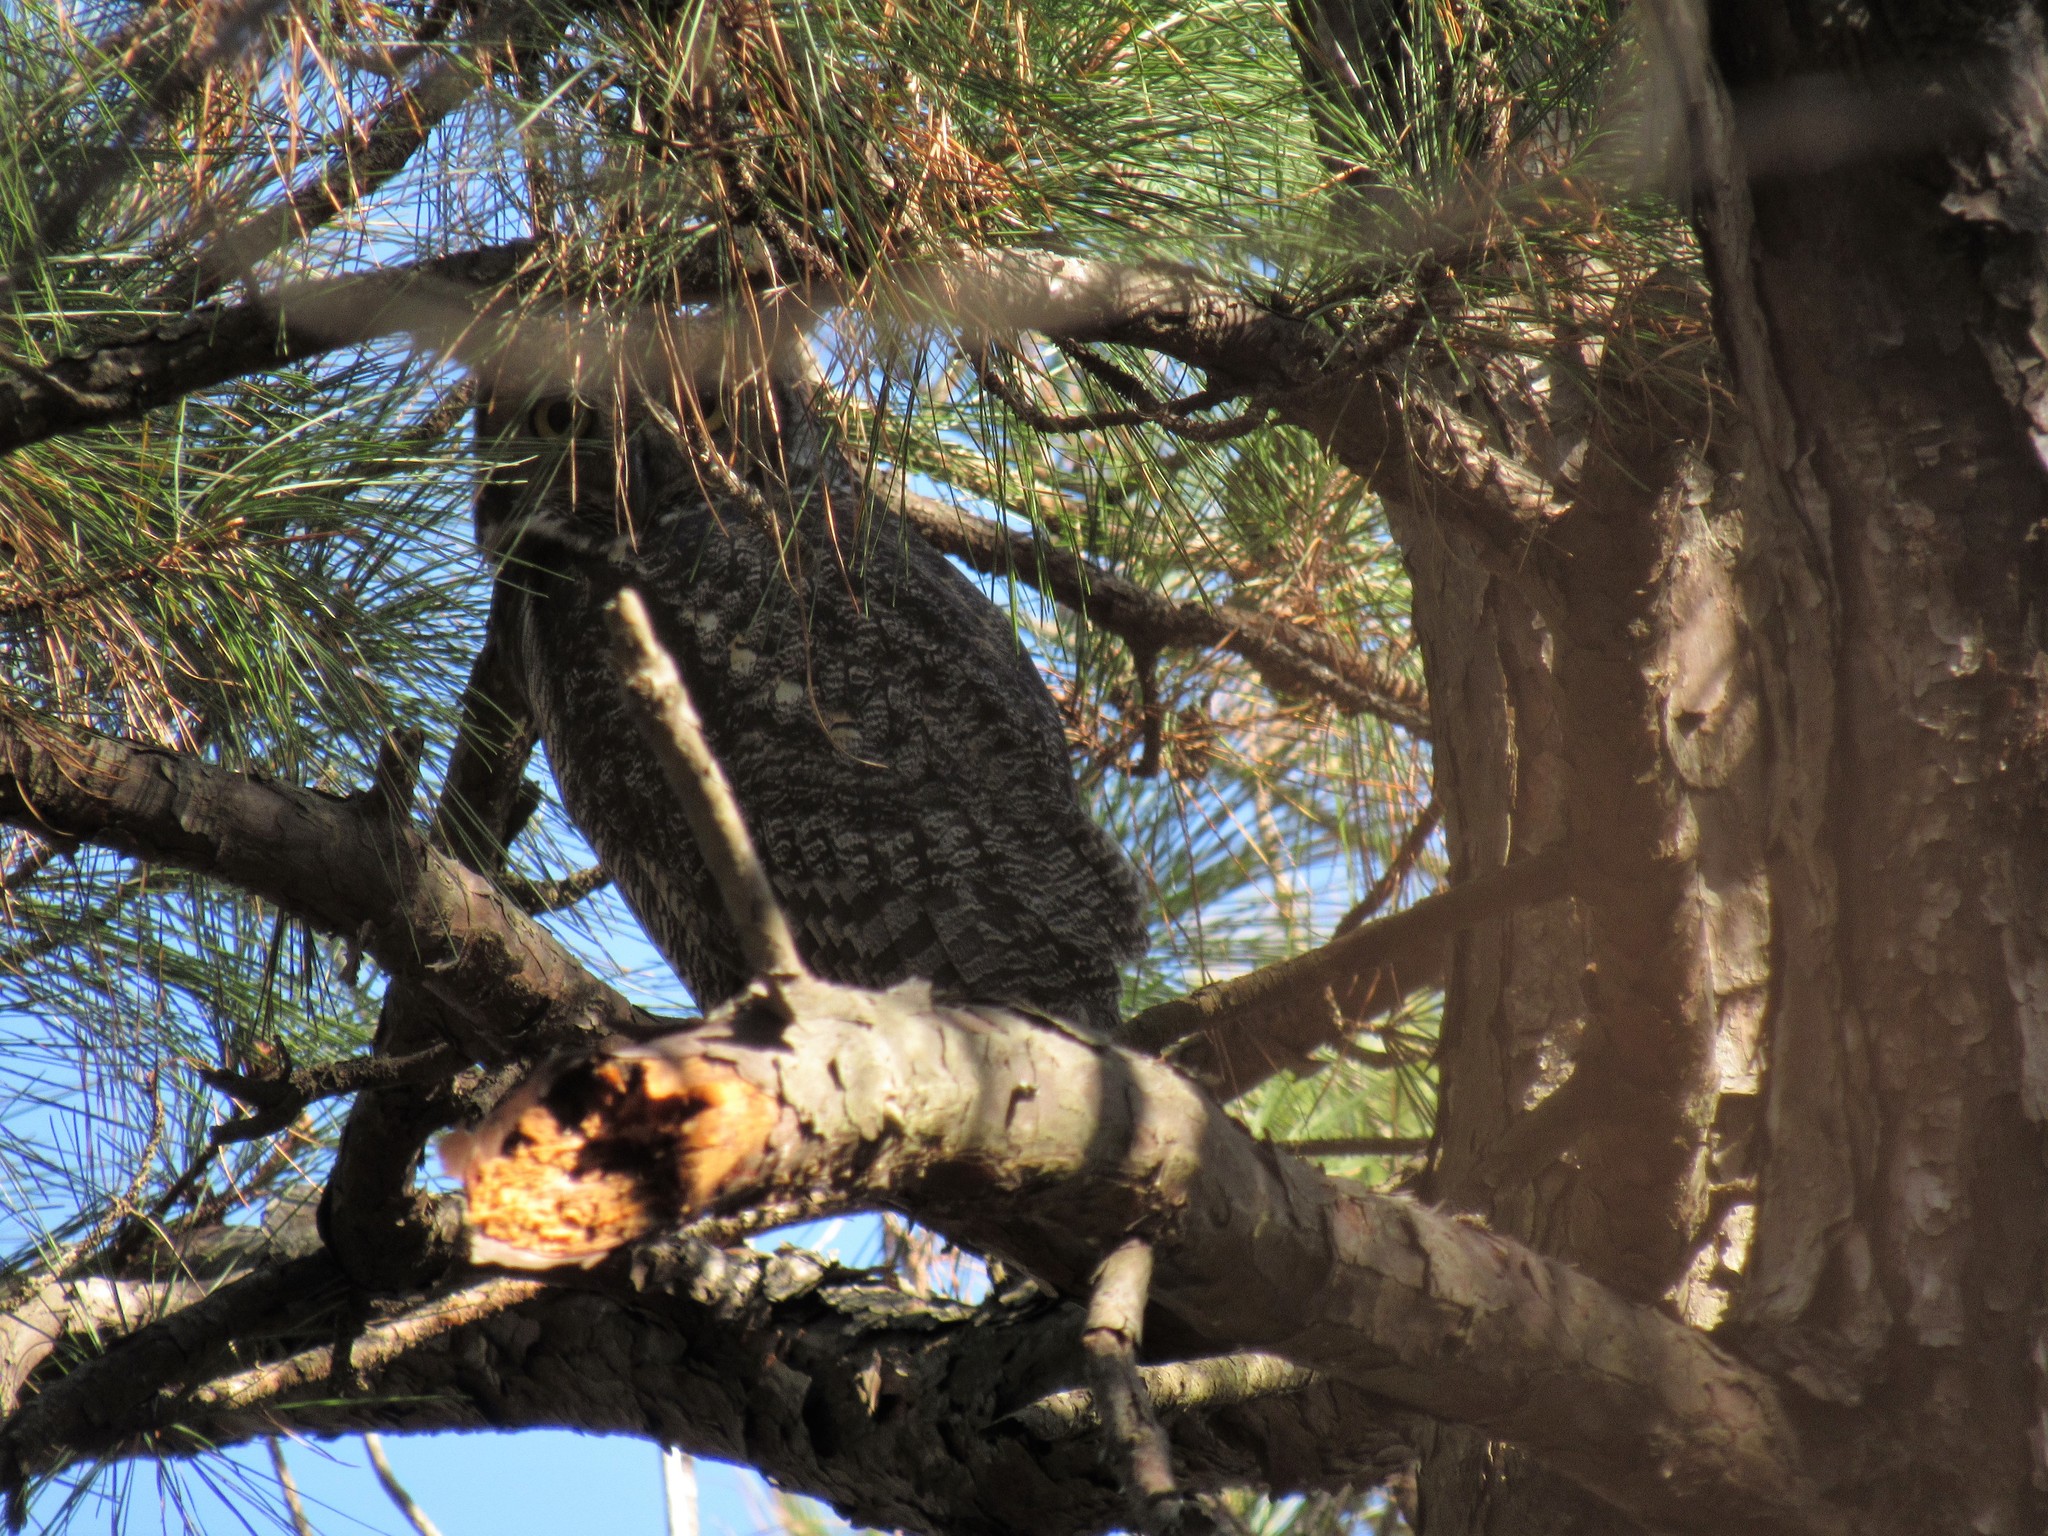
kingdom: Animalia
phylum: Chordata
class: Aves
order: Strigiformes
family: Strigidae
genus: Bubo
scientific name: Bubo virginianus
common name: Great horned owl
